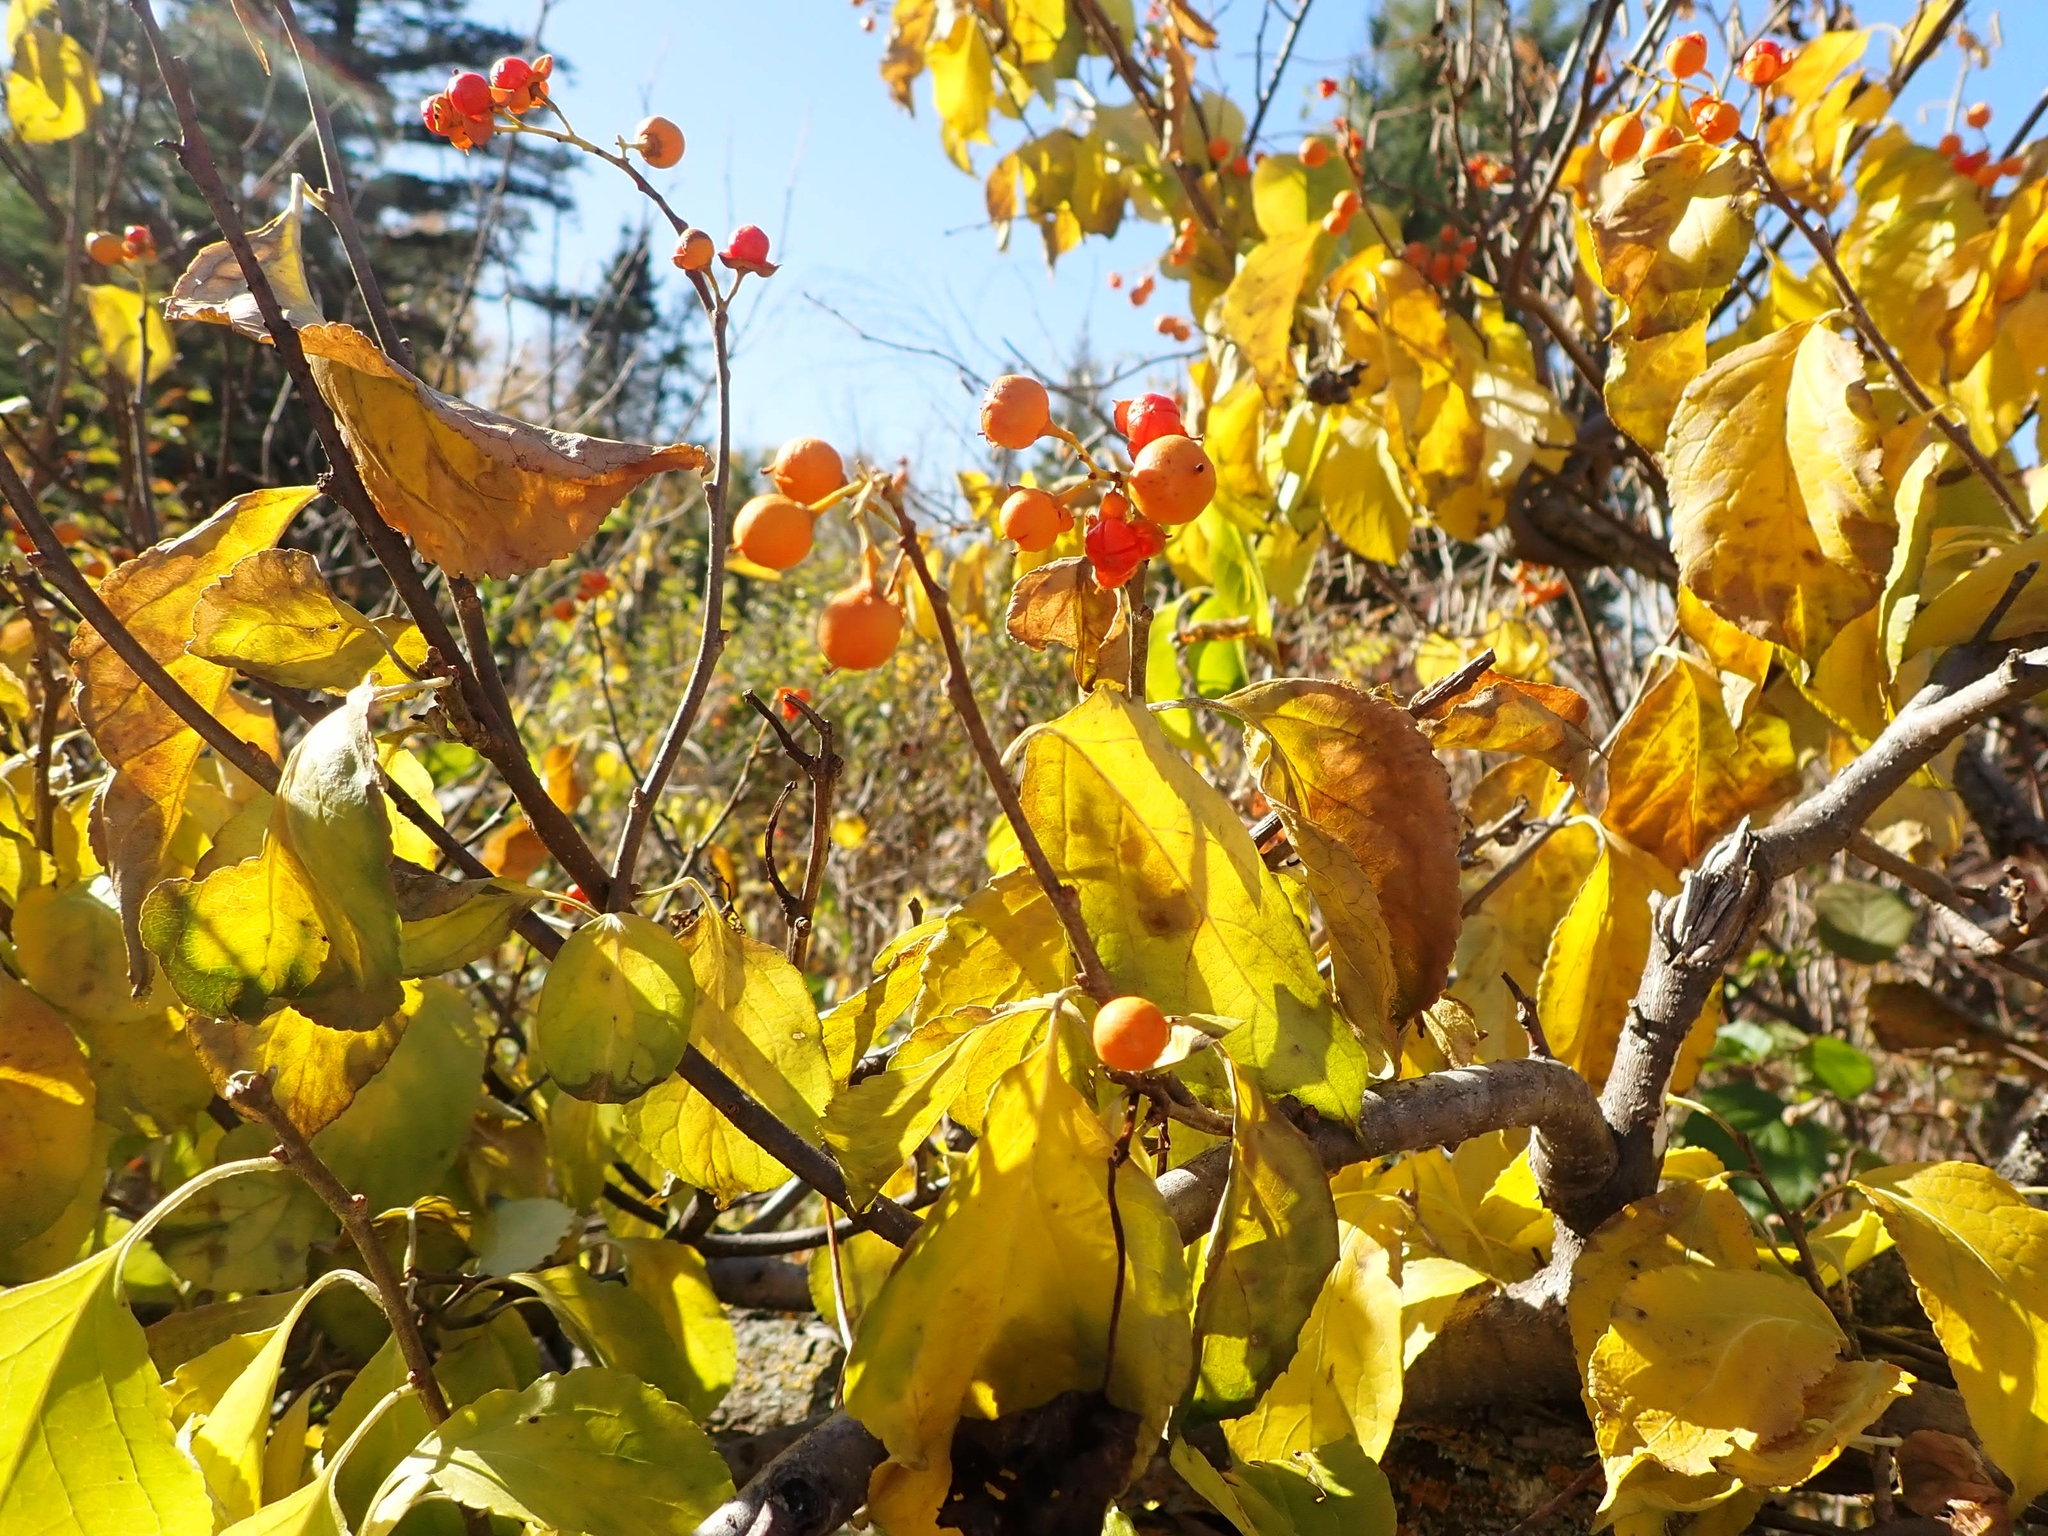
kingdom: Plantae
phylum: Tracheophyta
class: Magnoliopsida
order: Celastrales
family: Celastraceae
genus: Celastrus
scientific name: Celastrus scandens
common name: American bittersweet
